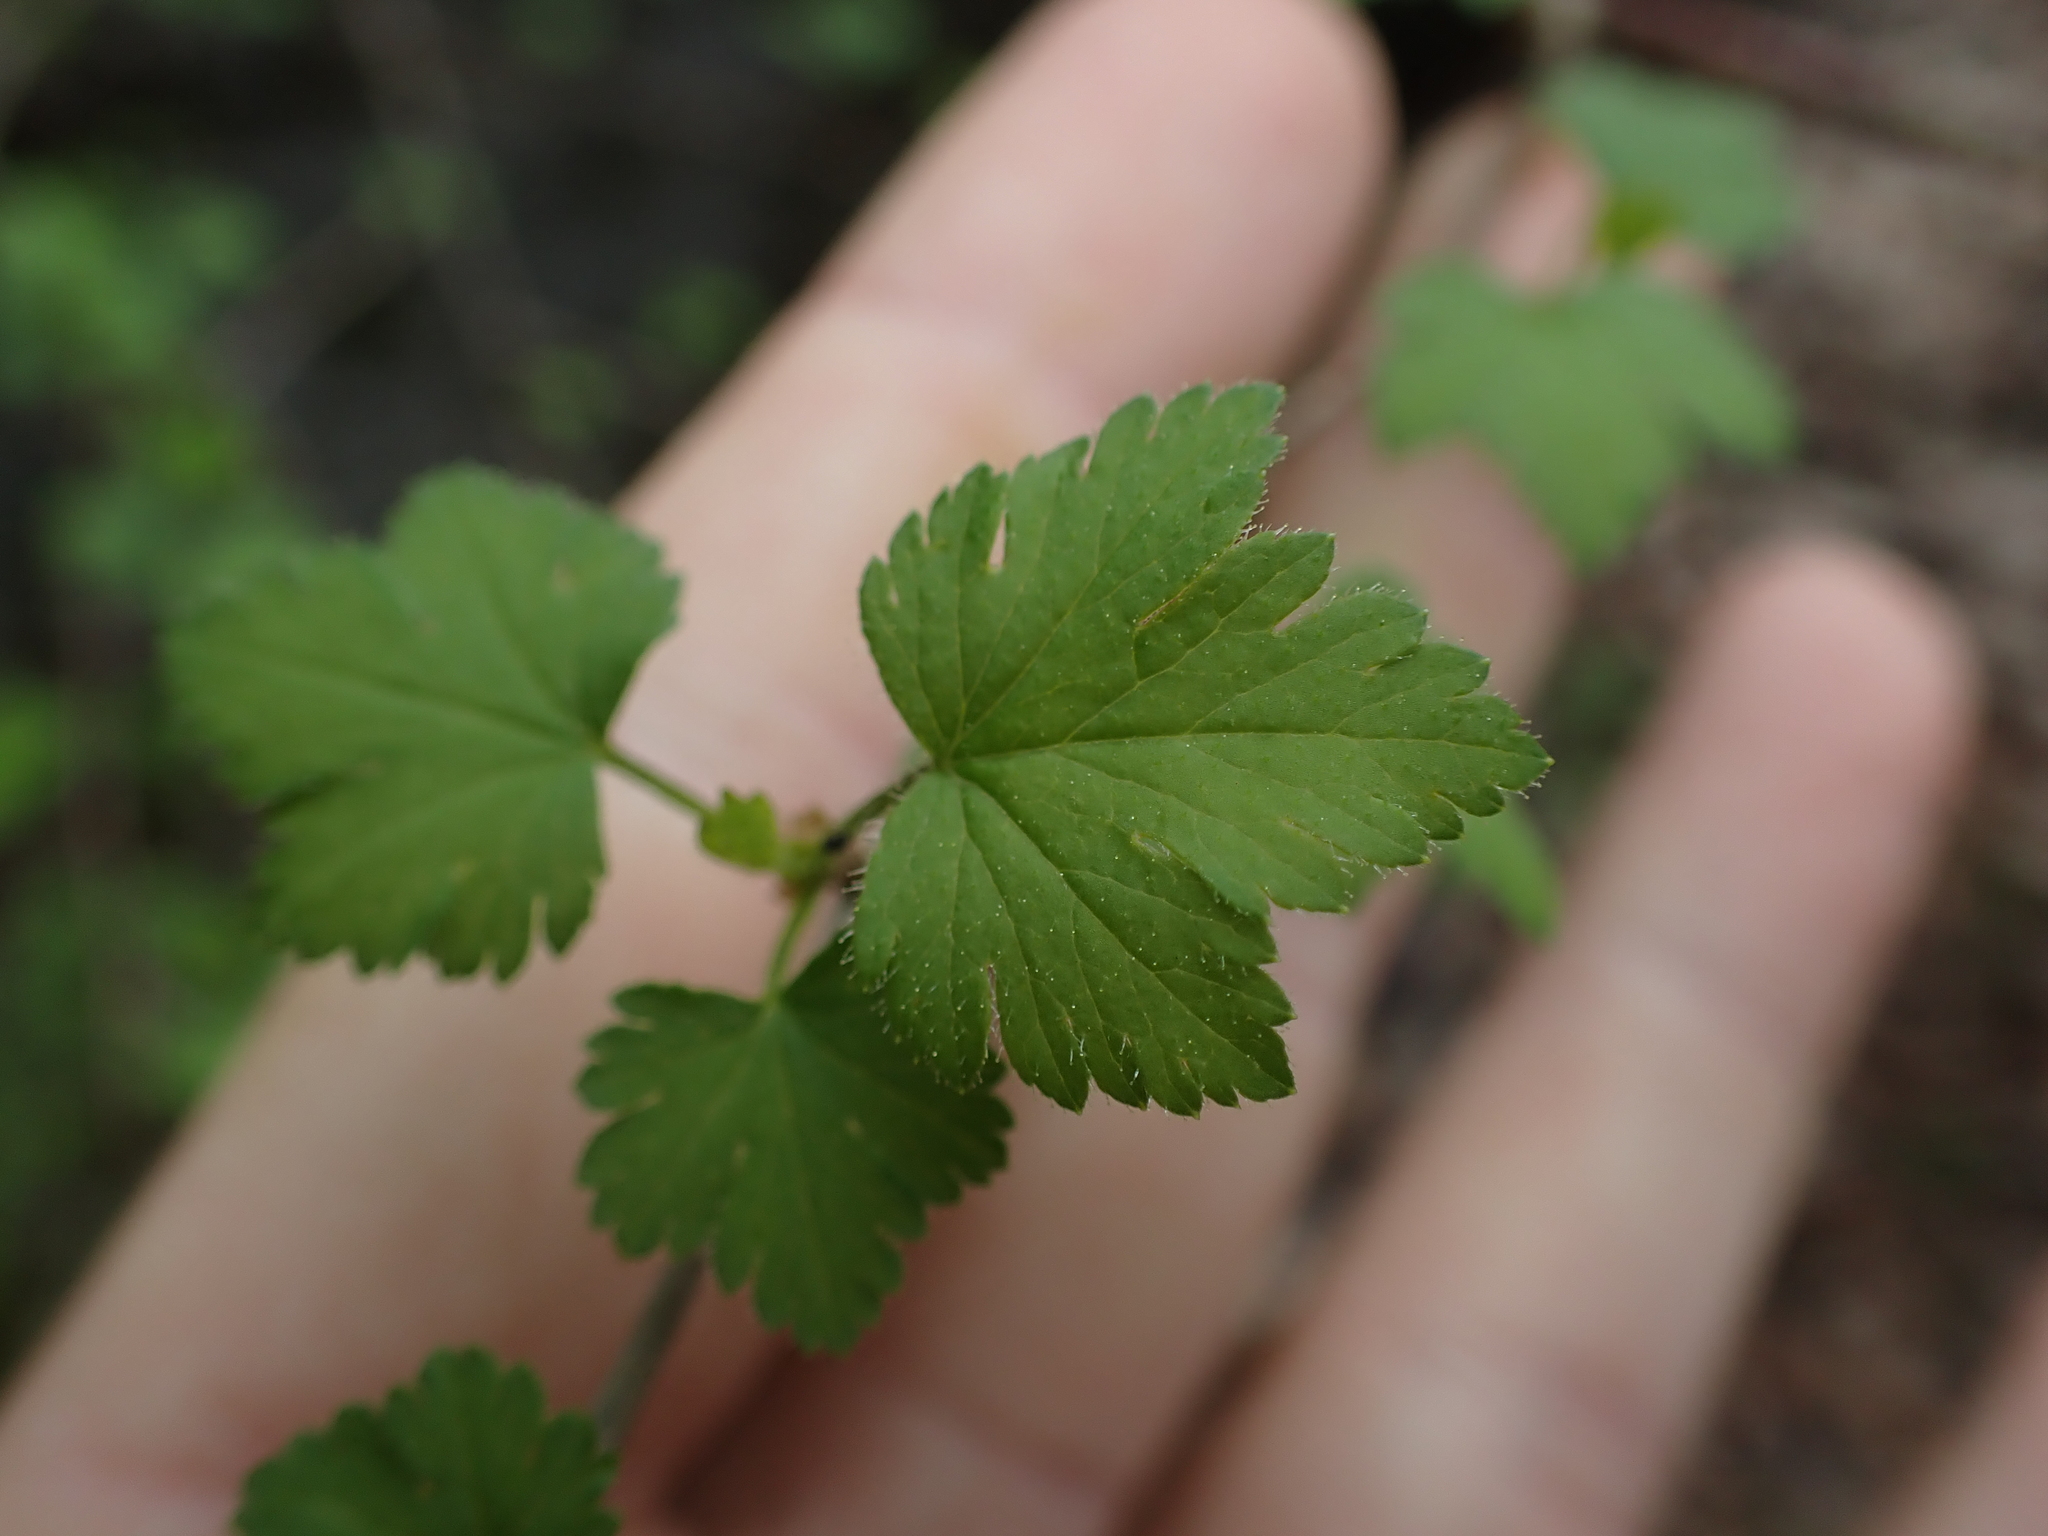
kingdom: Plantae
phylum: Tracheophyta
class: Magnoliopsida
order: Saxifragales
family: Grossulariaceae
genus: Ribes
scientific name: Ribes cynosbati
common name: American gooseberry
